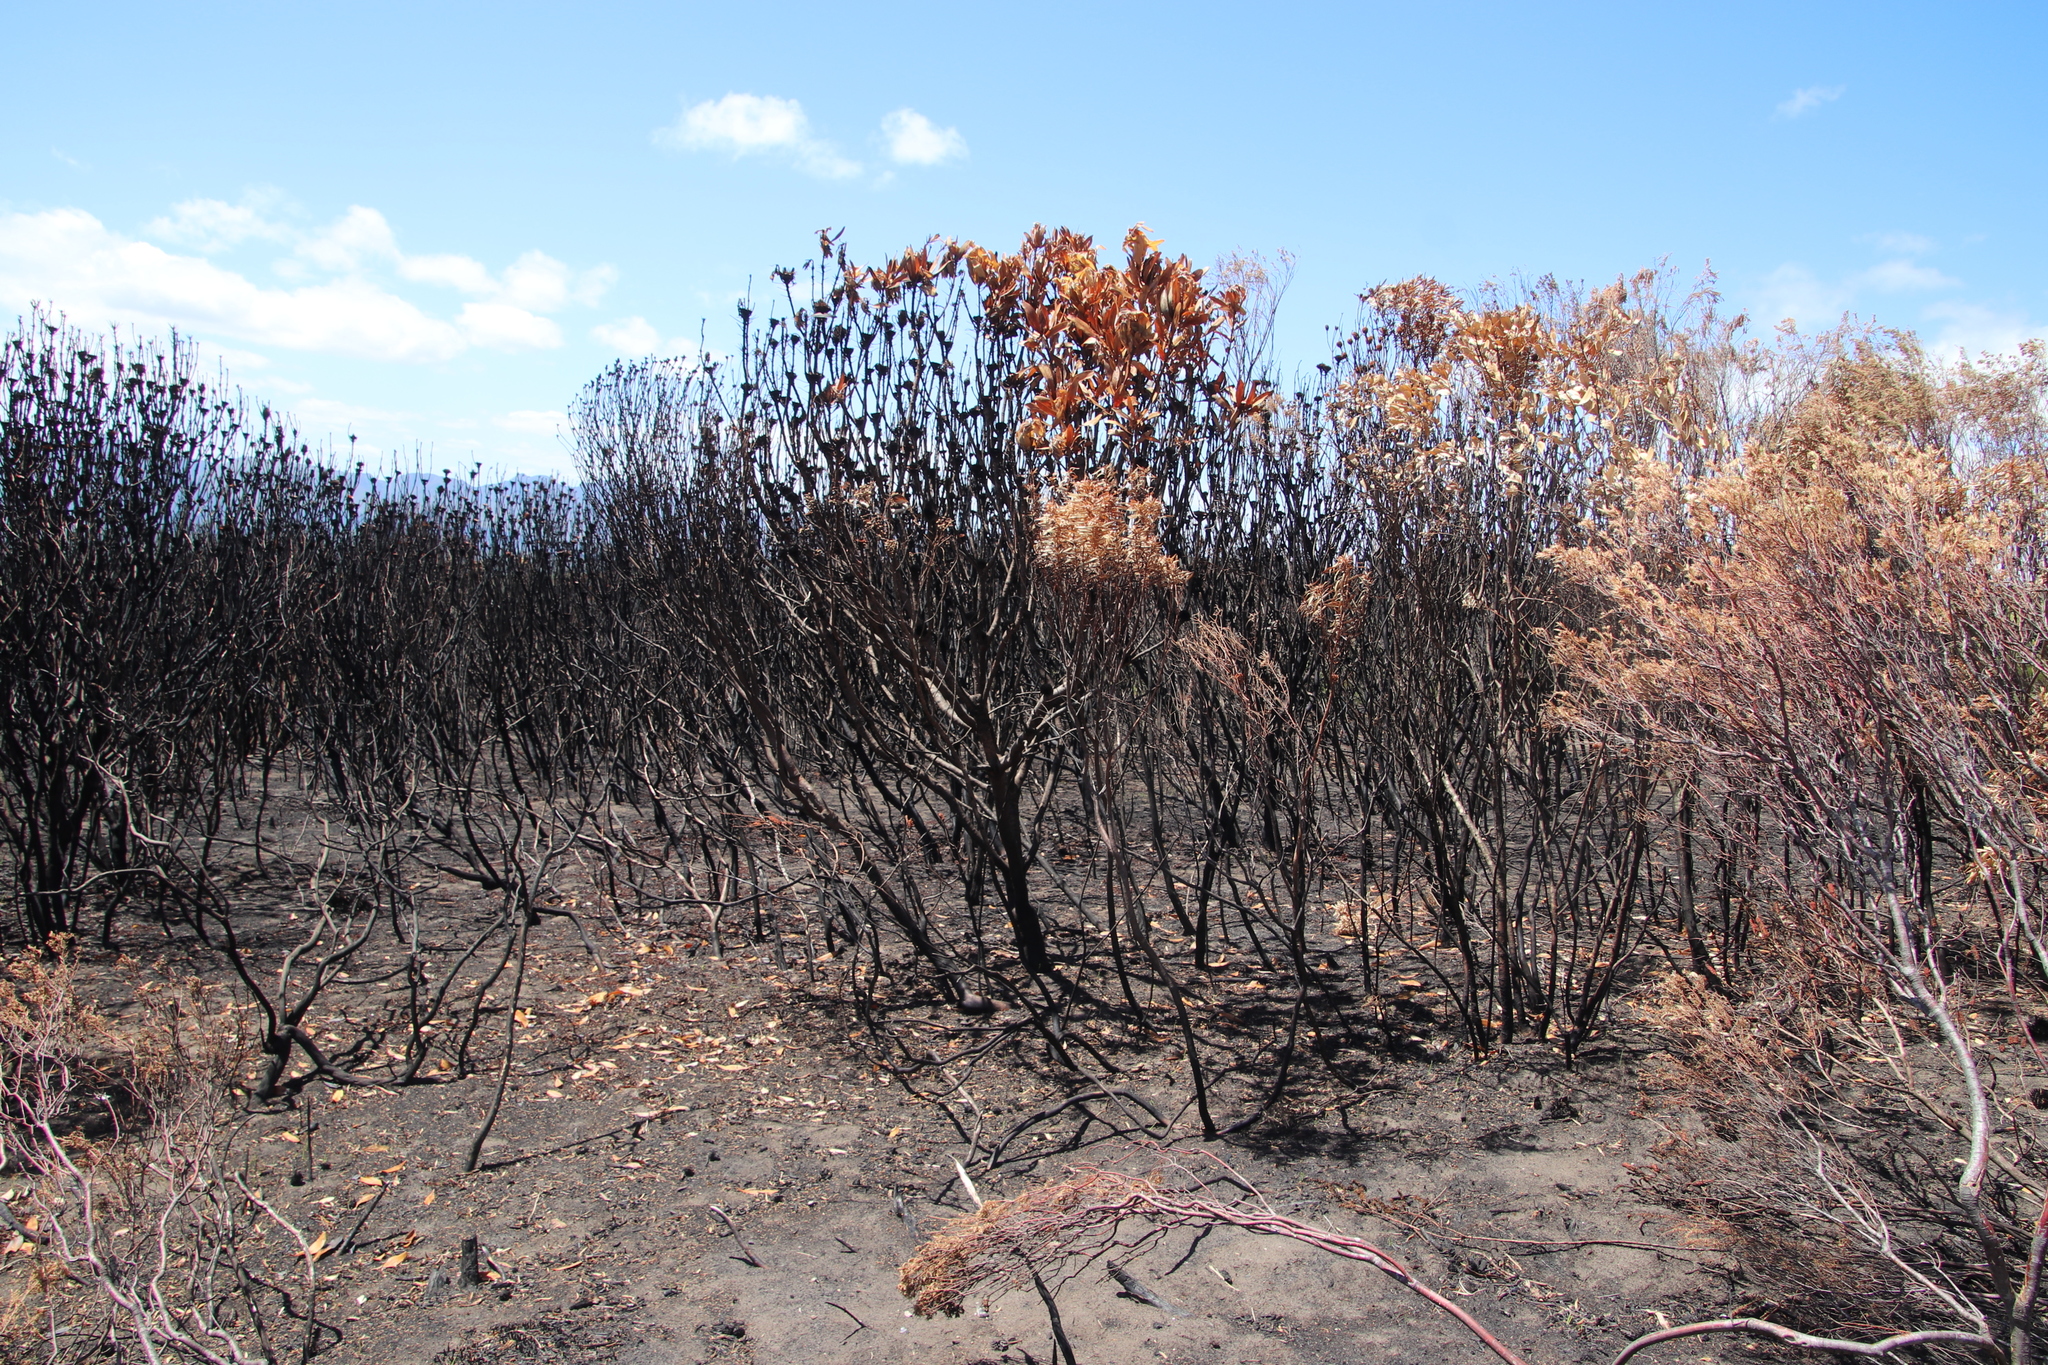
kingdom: Plantae
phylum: Tracheophyta
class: Magnoliopsida
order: Proteales
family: Proteaceae
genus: Leucadendron
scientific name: Leucadendron coniferum
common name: Dune conebush
